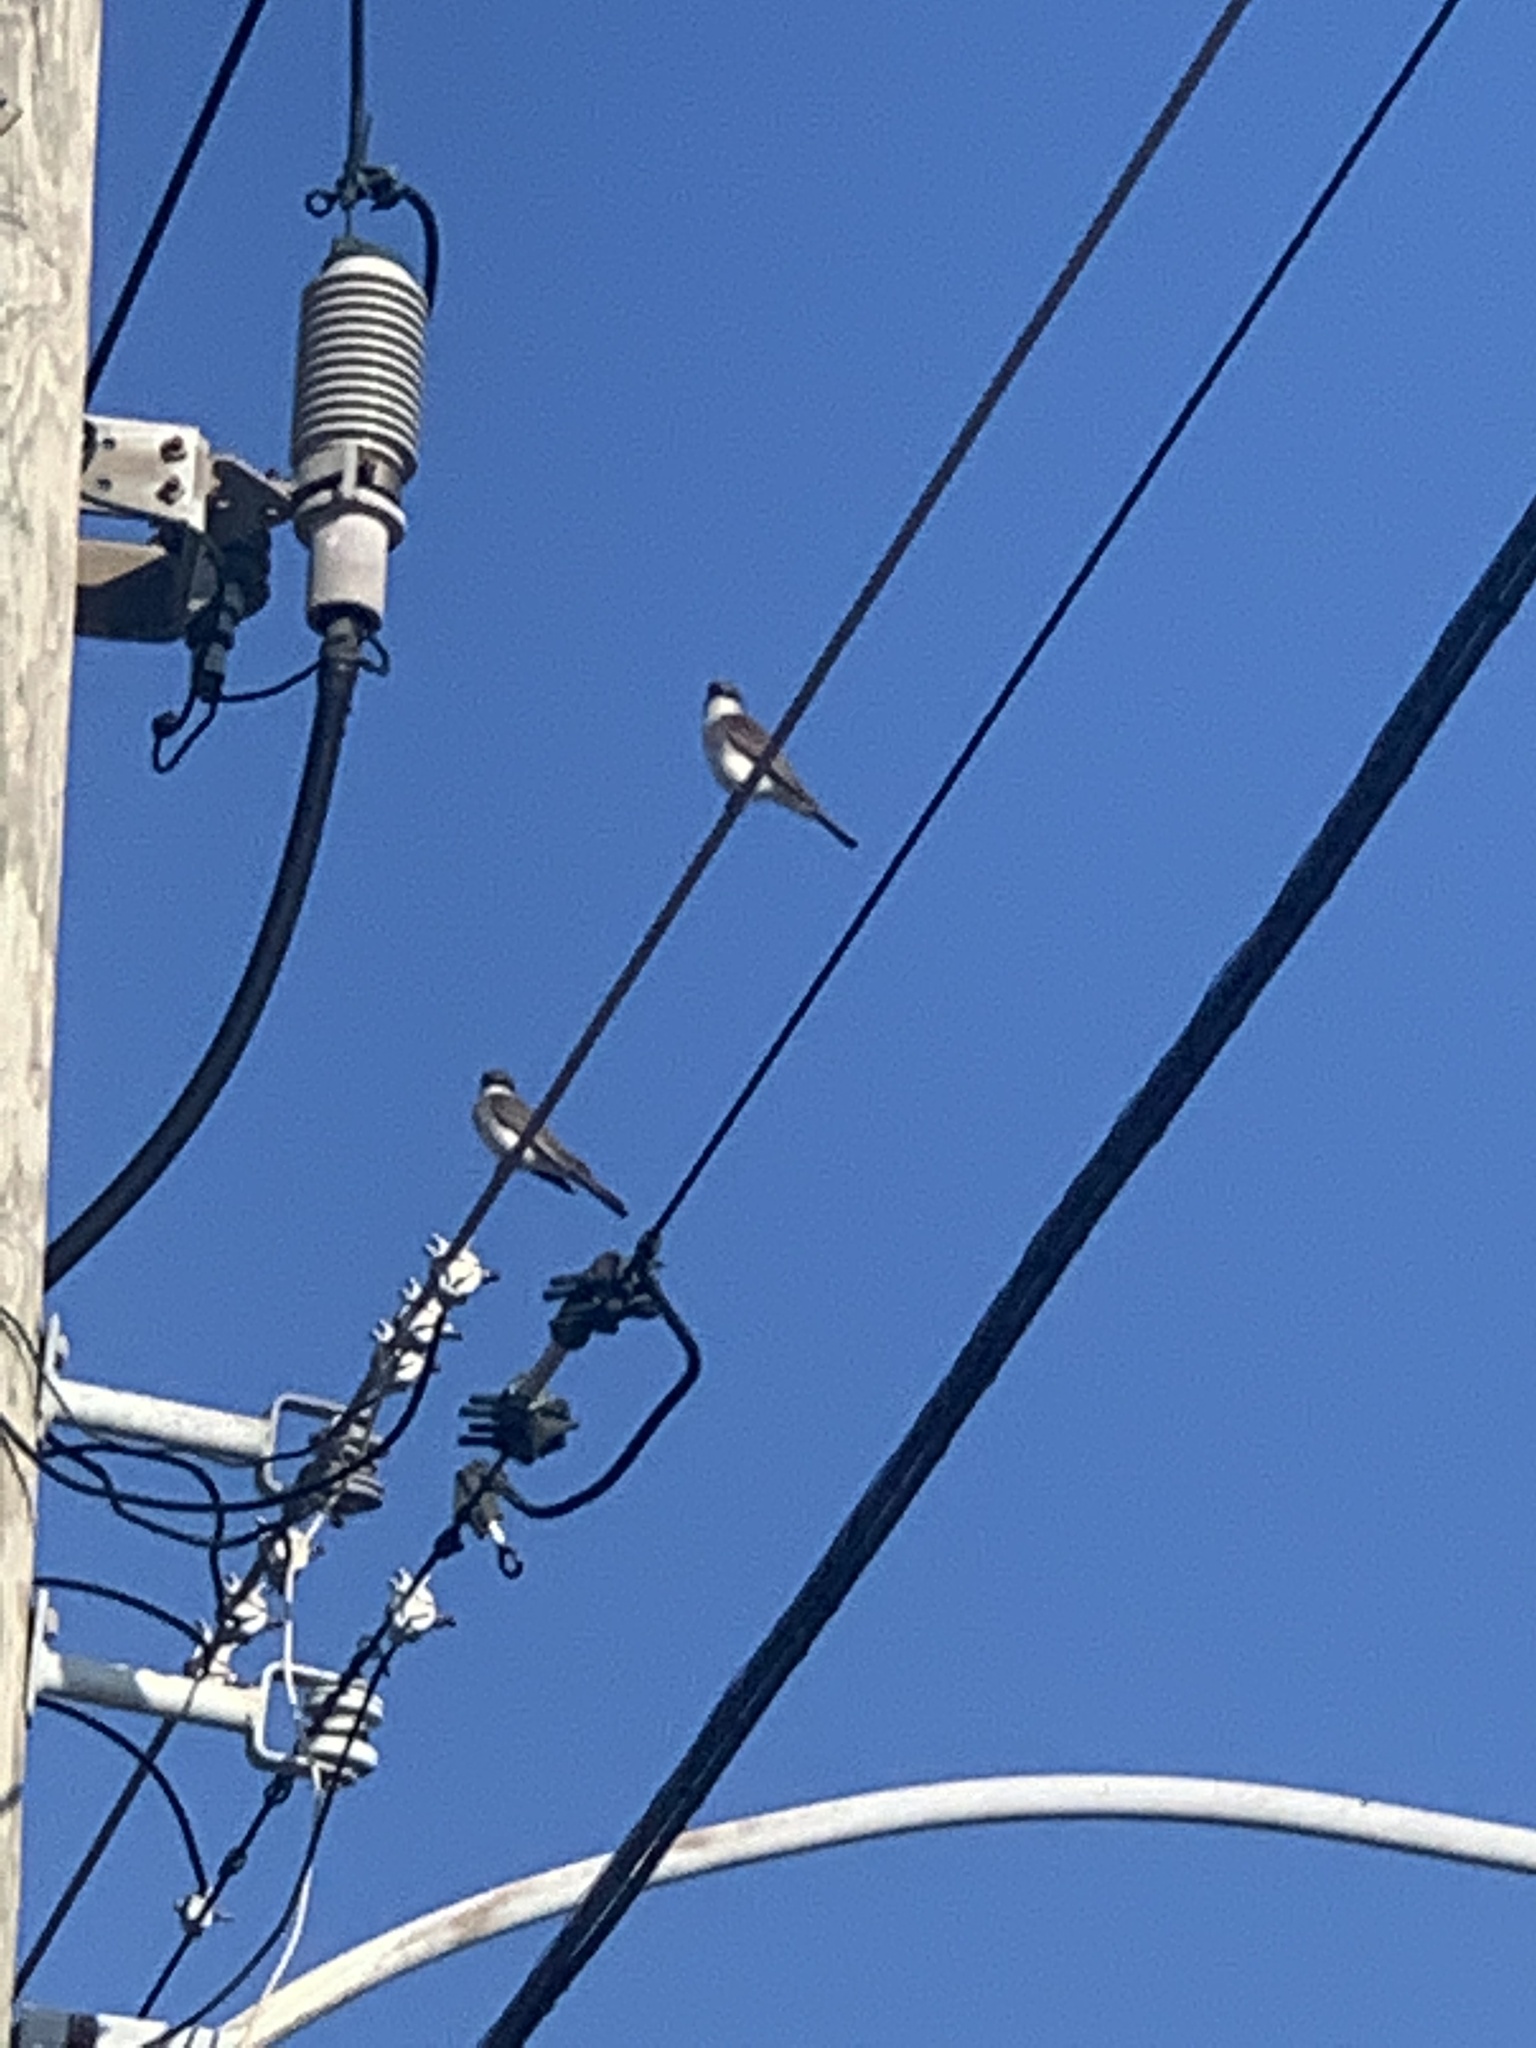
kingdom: Animalia
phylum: Chordata
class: Aves
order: Passeriformes
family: Tyrannidae
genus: Tyrannus
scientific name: Tyrannus dominicensis
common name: Gray kingbird
